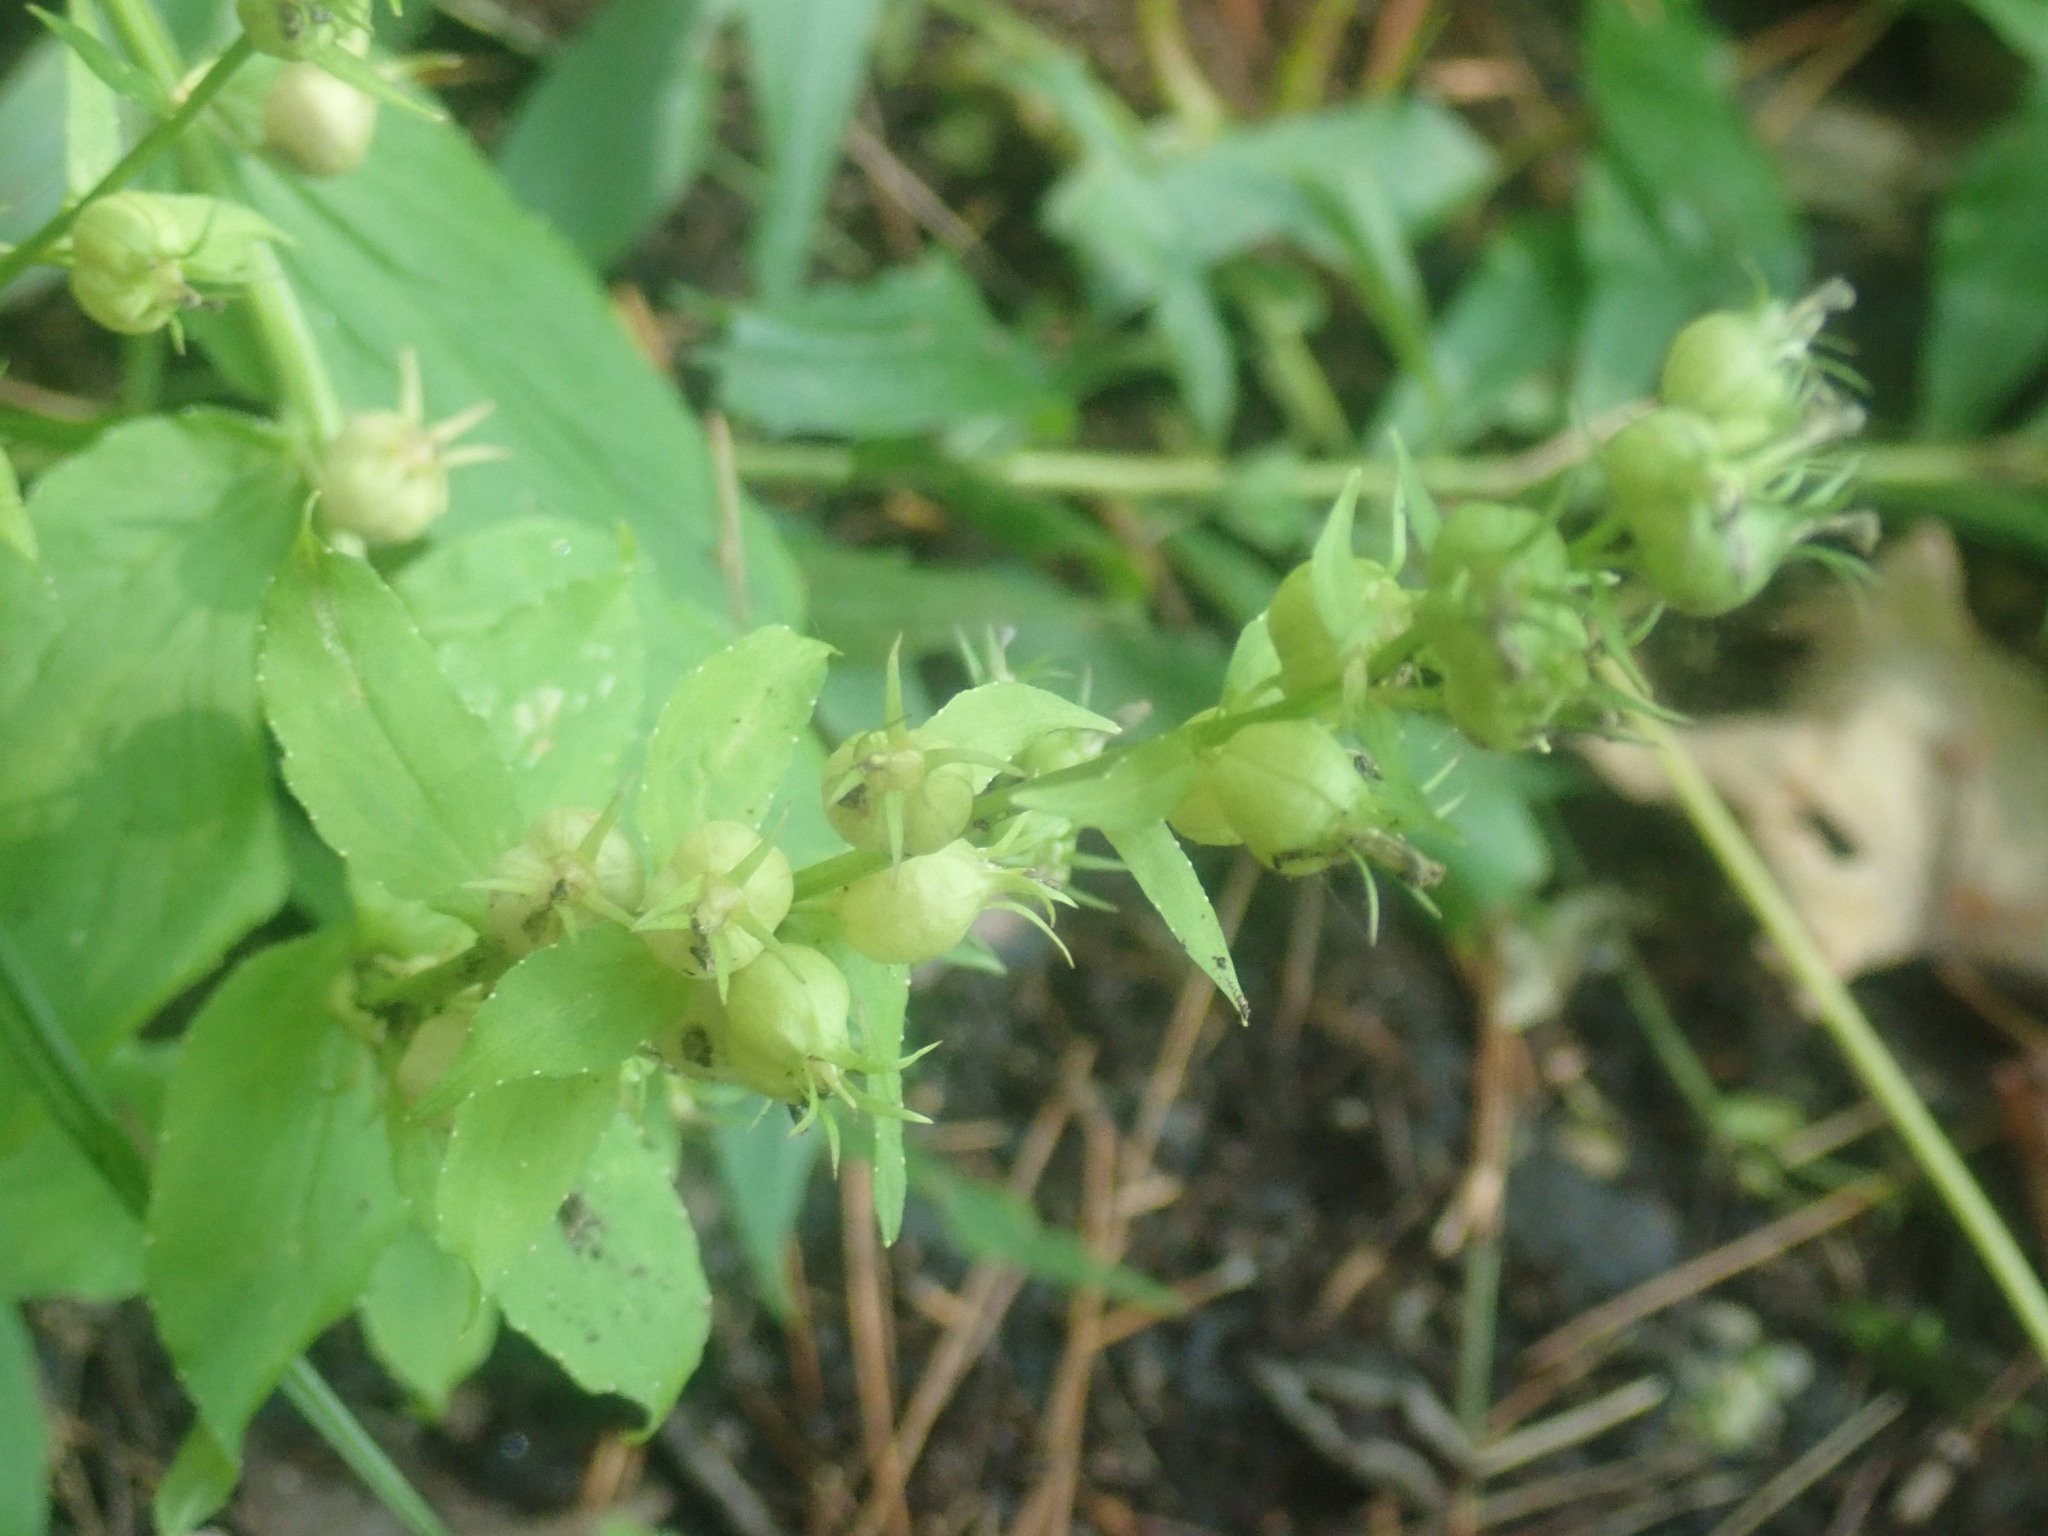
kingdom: Plantae
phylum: Tracheophyta
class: Magnoliopsida
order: Asterales
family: Campanulaceae
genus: Lobelia
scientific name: Lobelia inflata
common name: Indian tobacco
